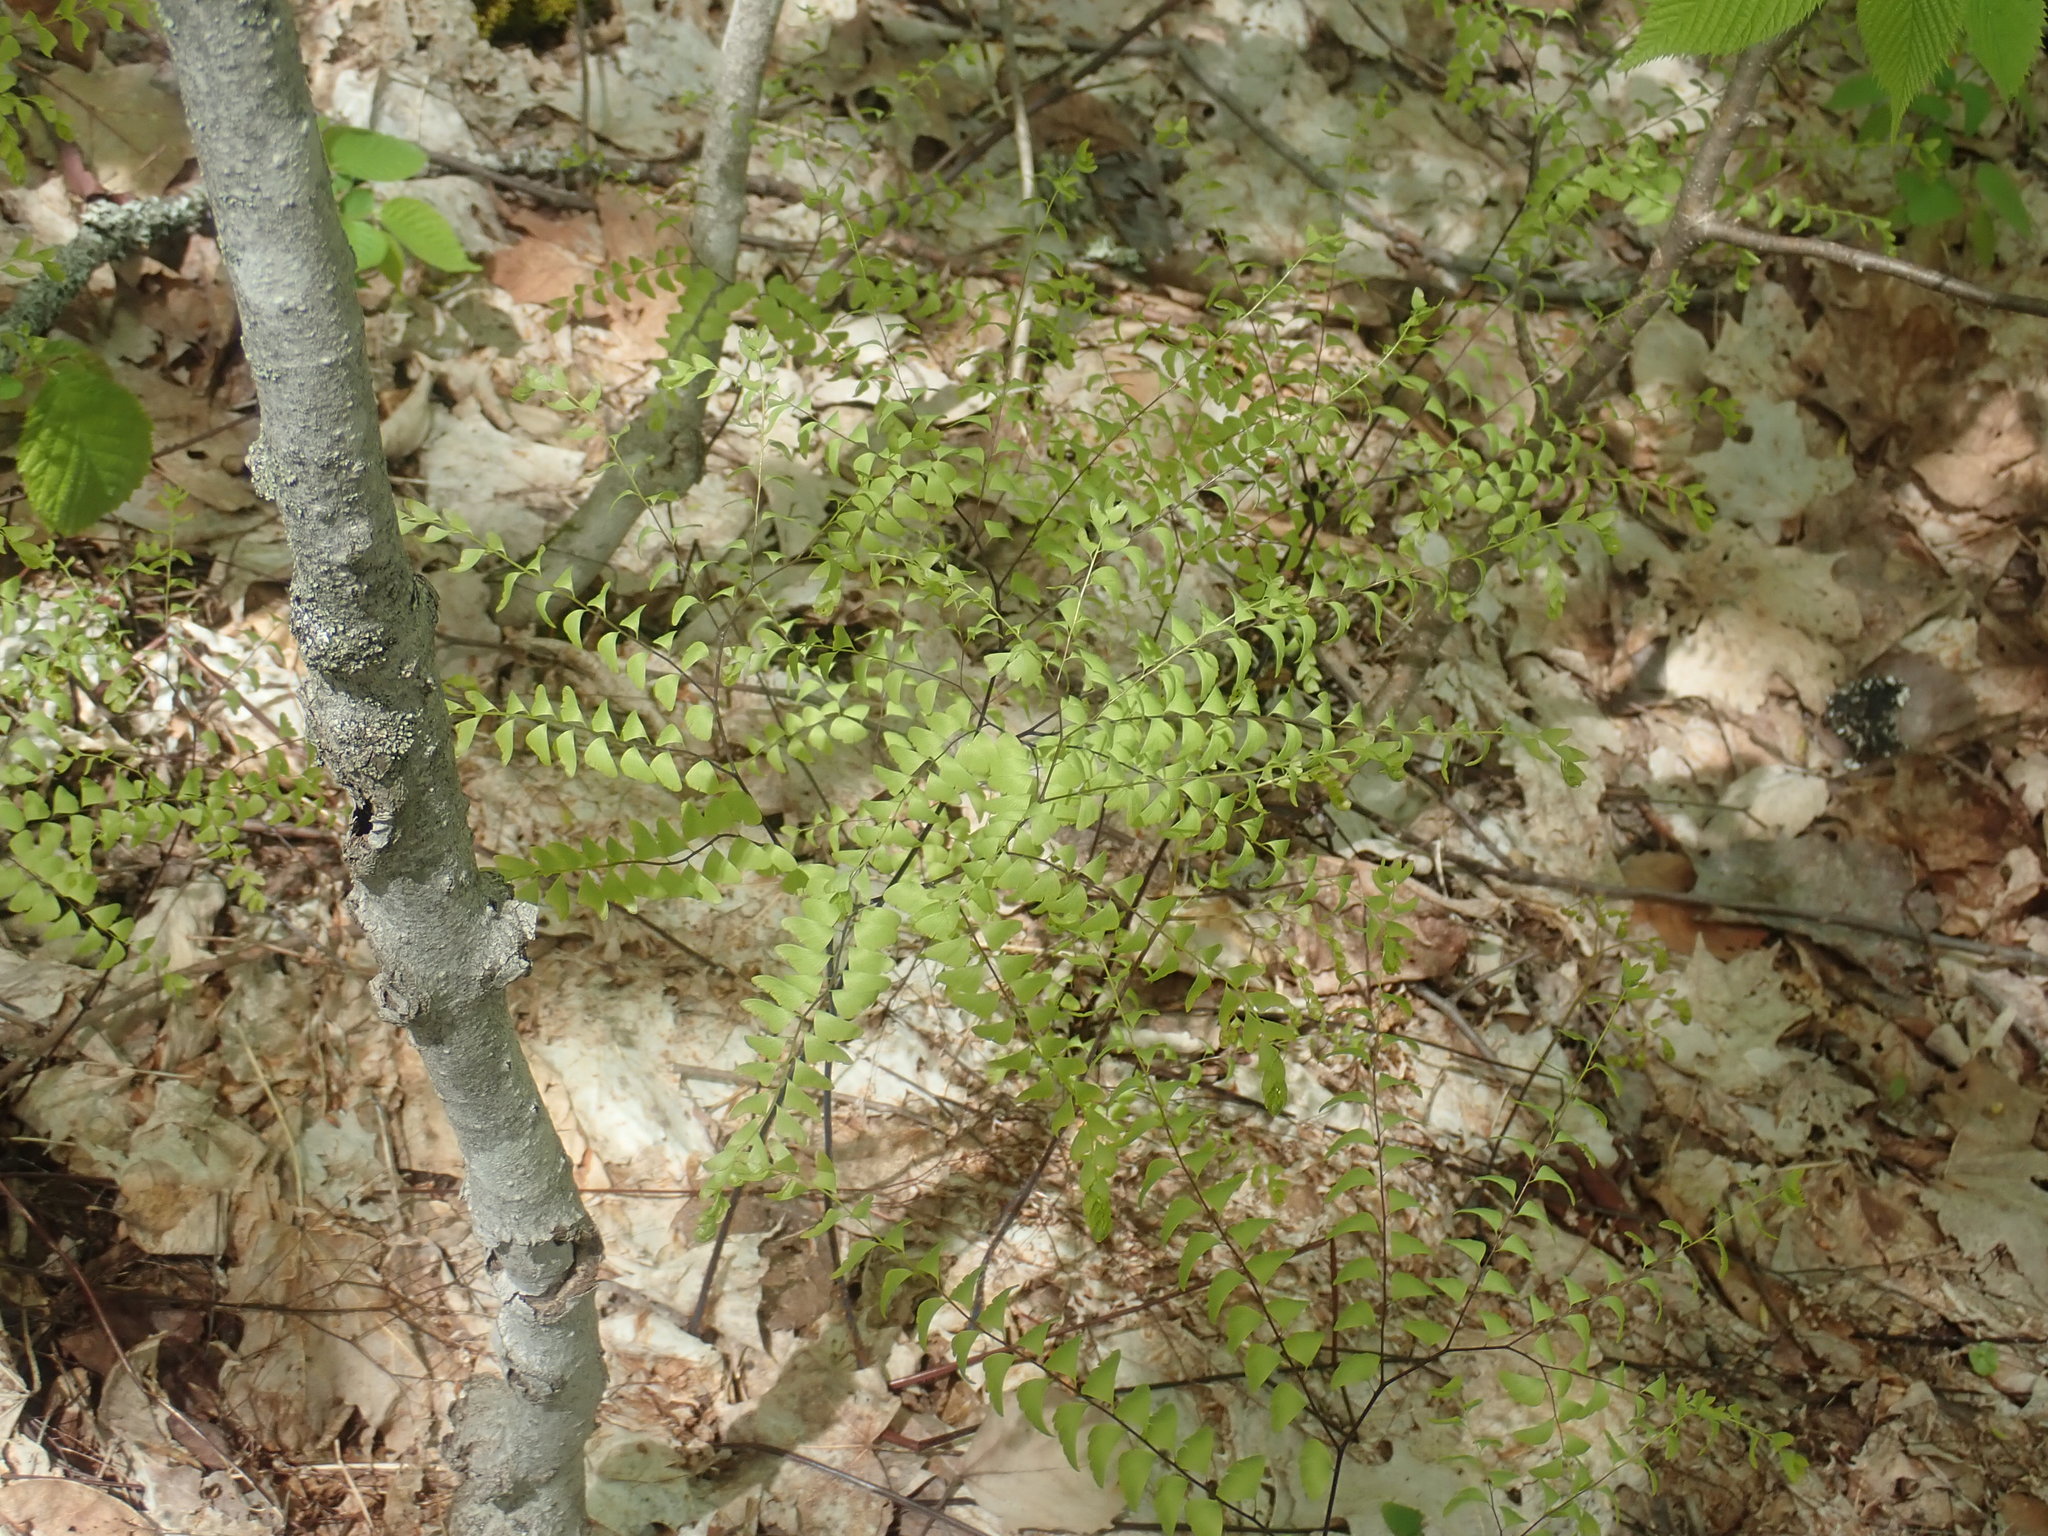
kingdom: Plantae
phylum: Tracheophyta
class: Polypodiopsida
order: Polypodiales
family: Pteridaceae
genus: Adiantum
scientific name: Adiantum pedatum
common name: Five-finger fern
